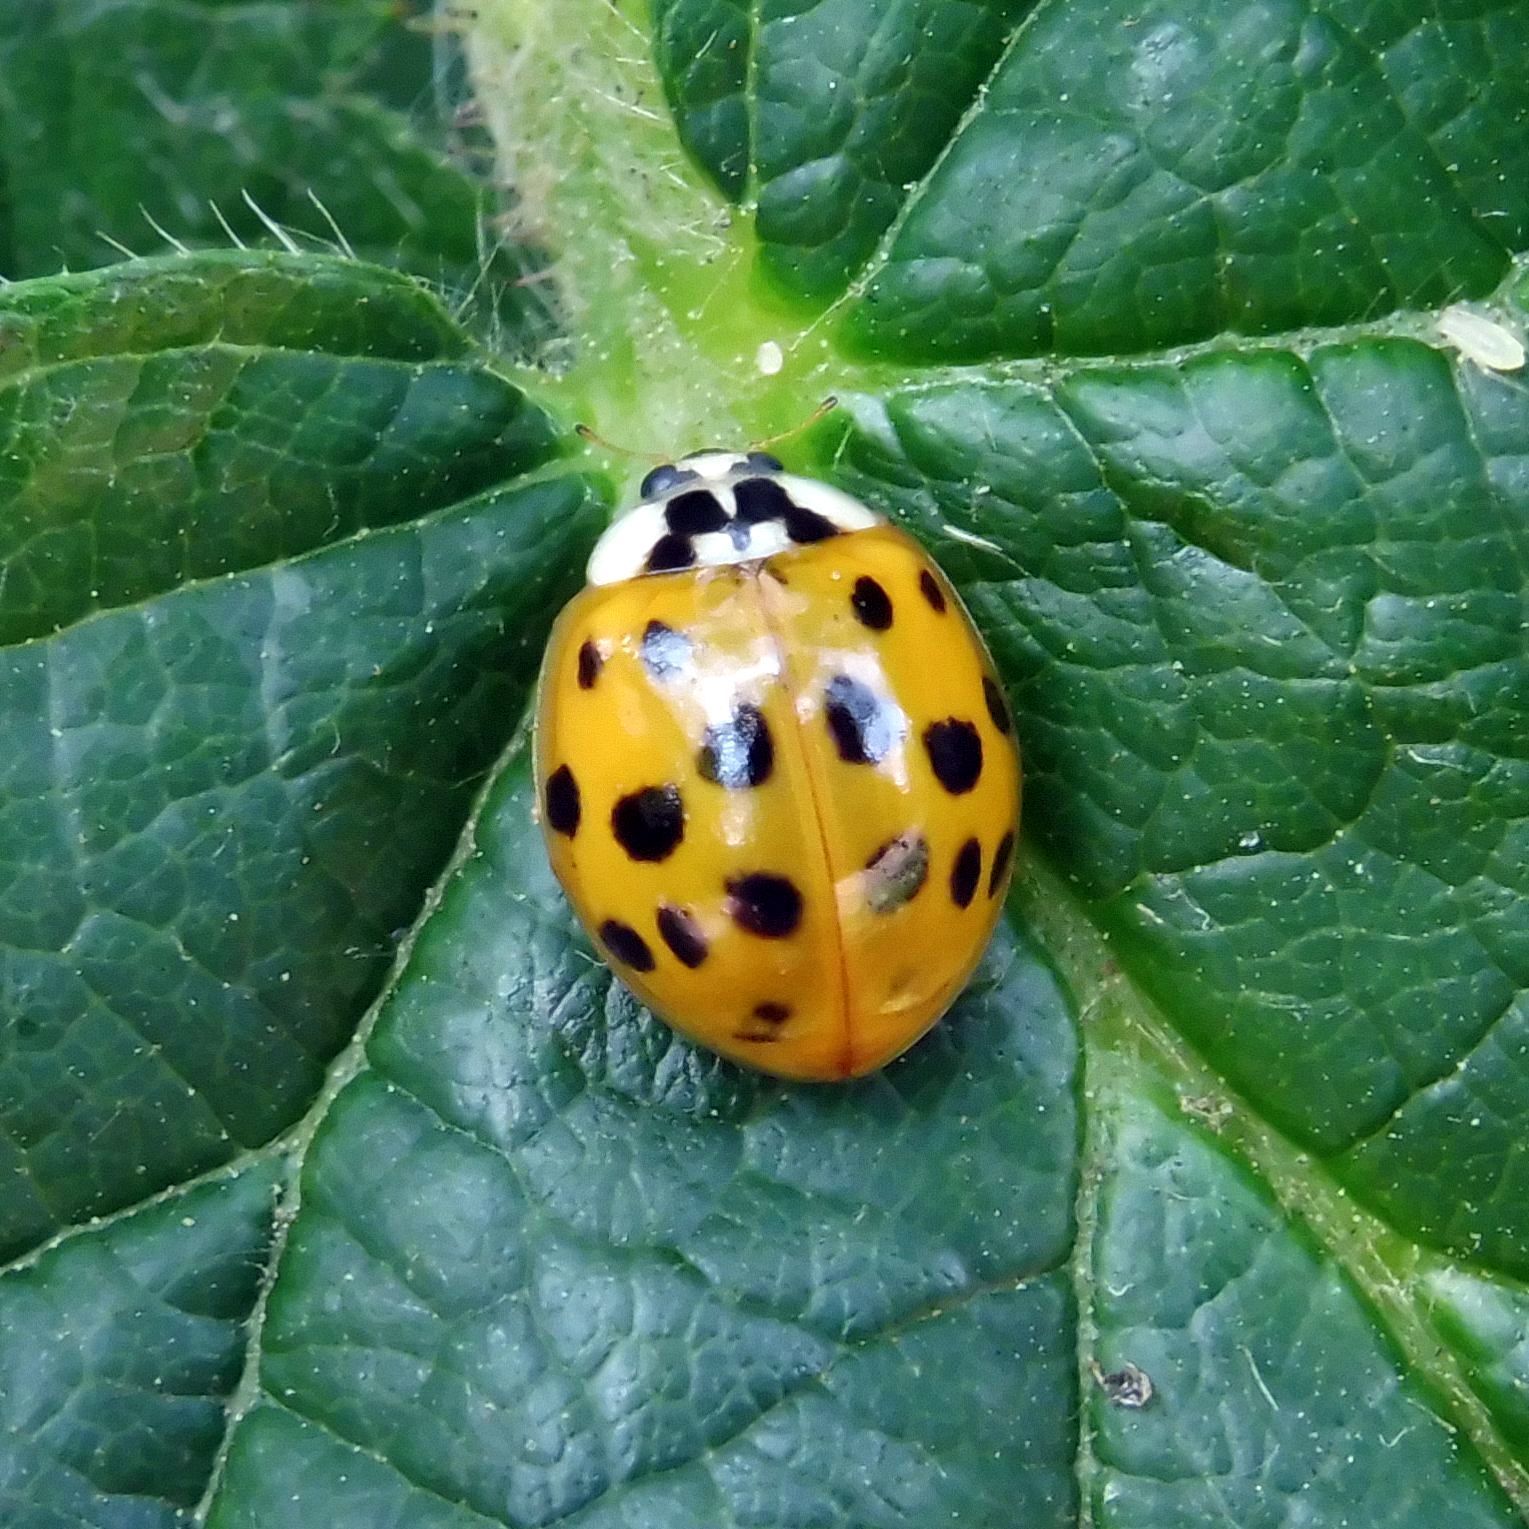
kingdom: Animalia
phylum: Arthropoda
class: Insecta
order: Coleoptera
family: Coccinellidae
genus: Harmonia
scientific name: Harmonia axyridis
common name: Harlequin ladybird
